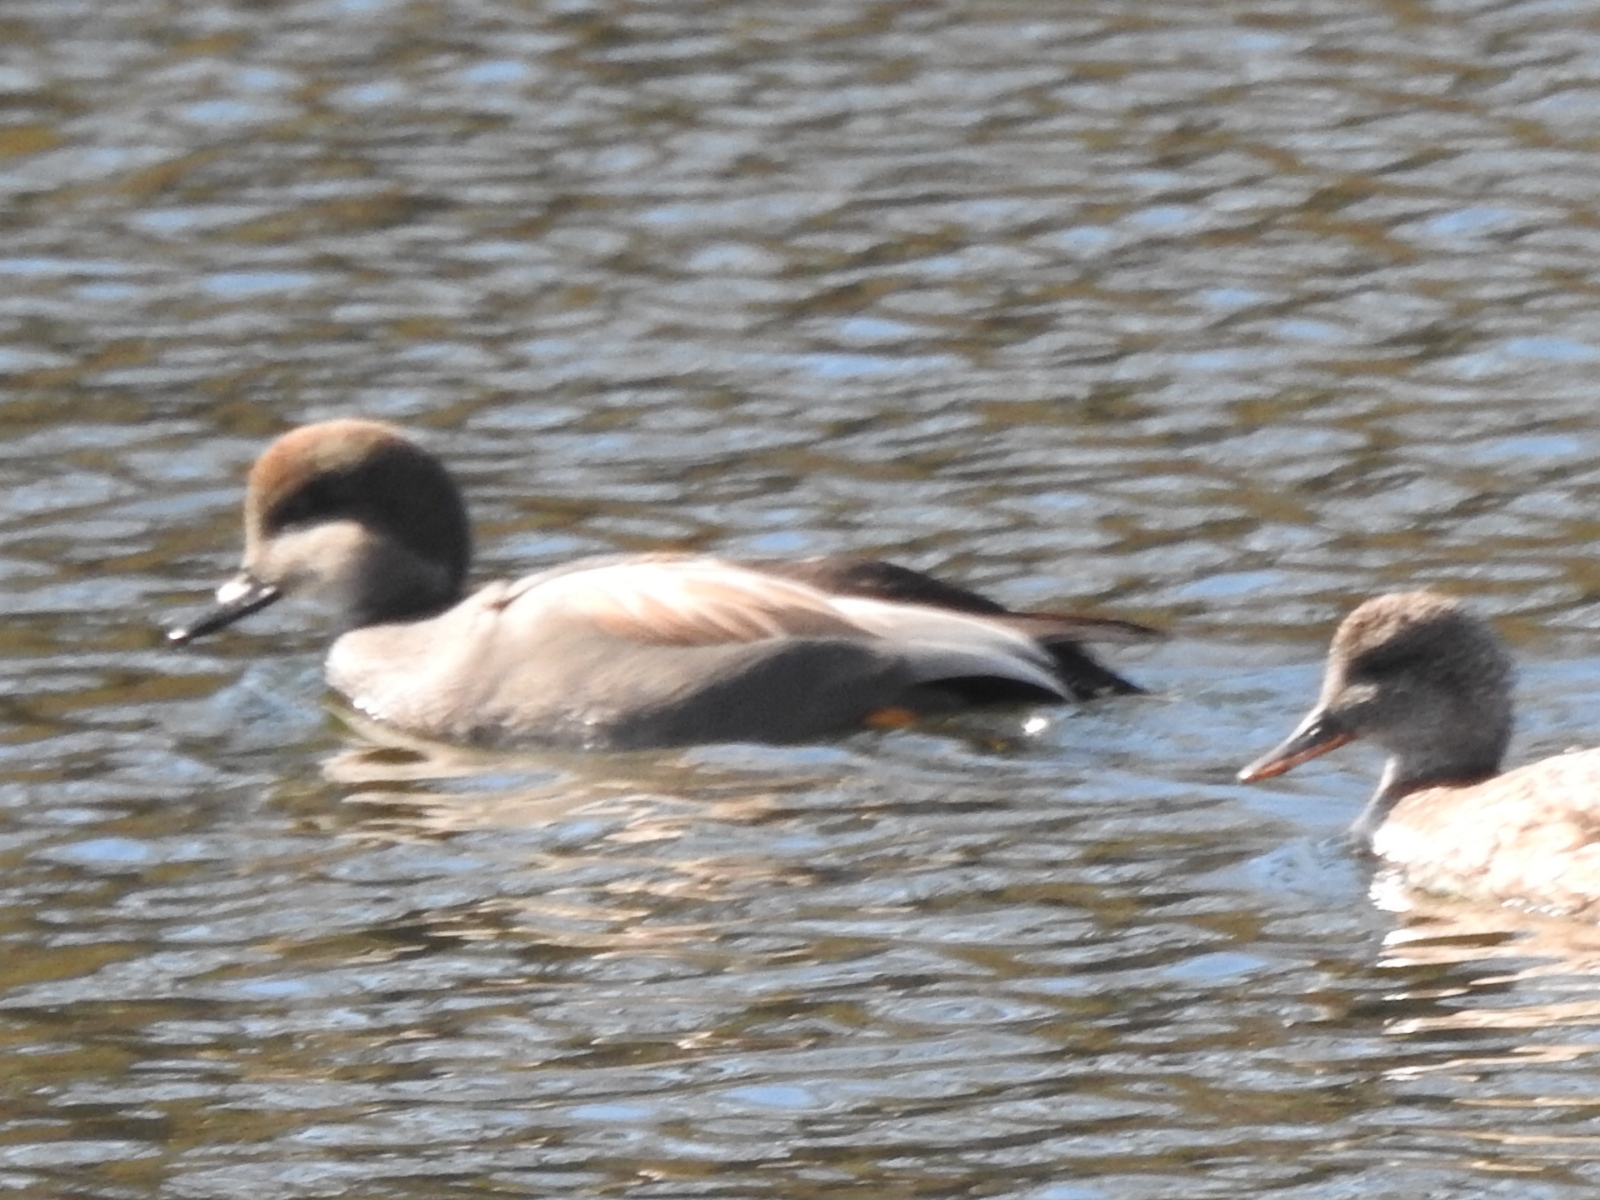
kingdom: Animalia
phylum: Chordata
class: Aves
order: Anseriformes
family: Anatidae
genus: Mareca
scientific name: Mareca strepera
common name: Gadwall
